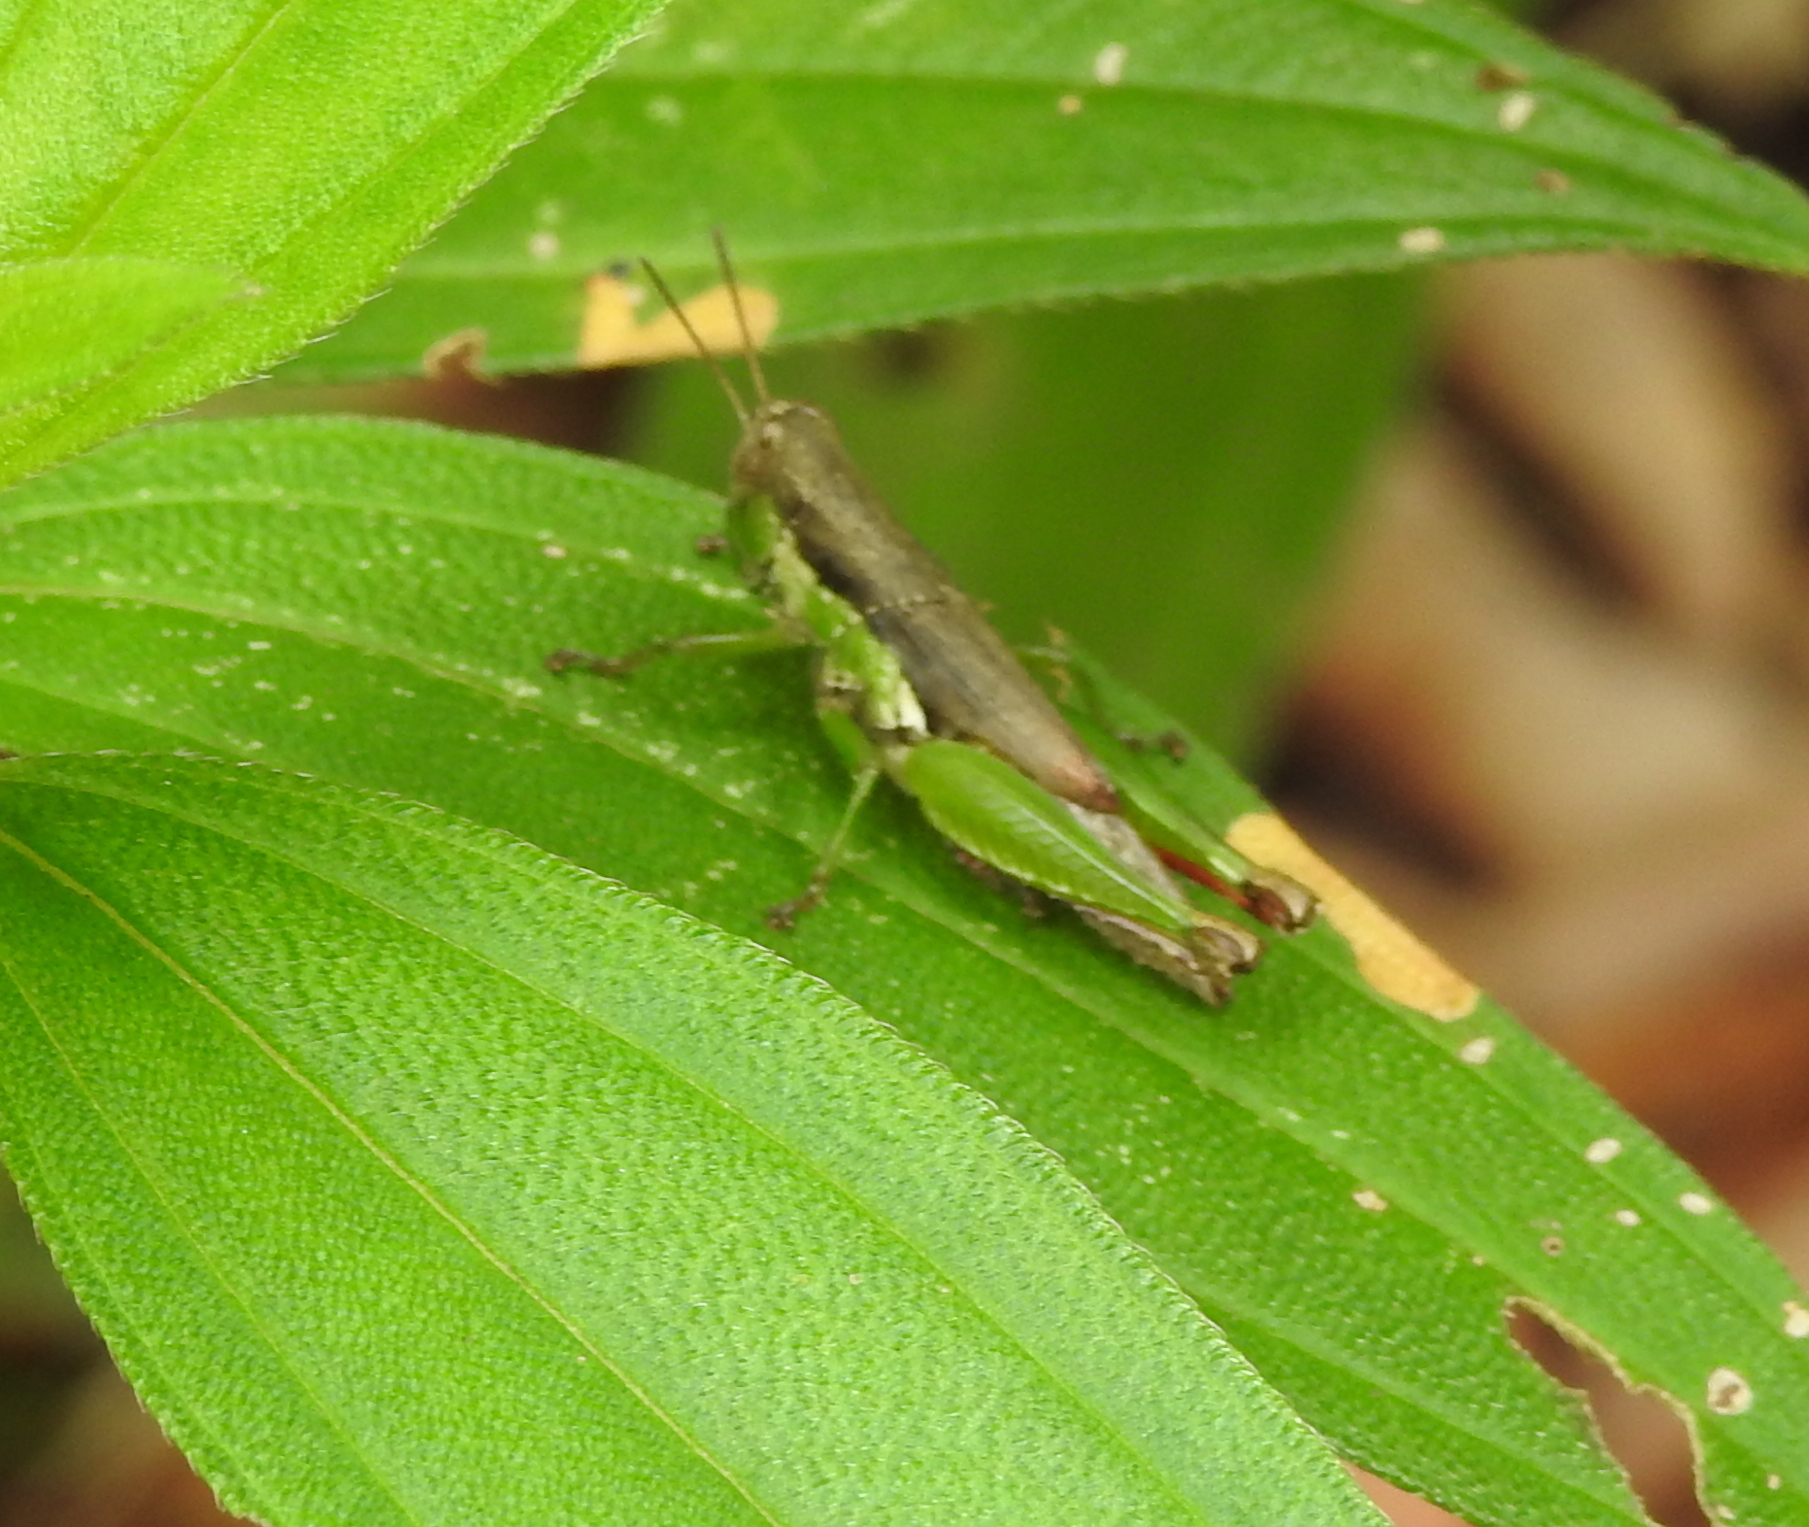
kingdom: Animalia
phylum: Arthropoda
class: Insecta
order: Orthoptera
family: Acrididae
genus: Pseudoxya
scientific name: Pseudoxya diminuta
